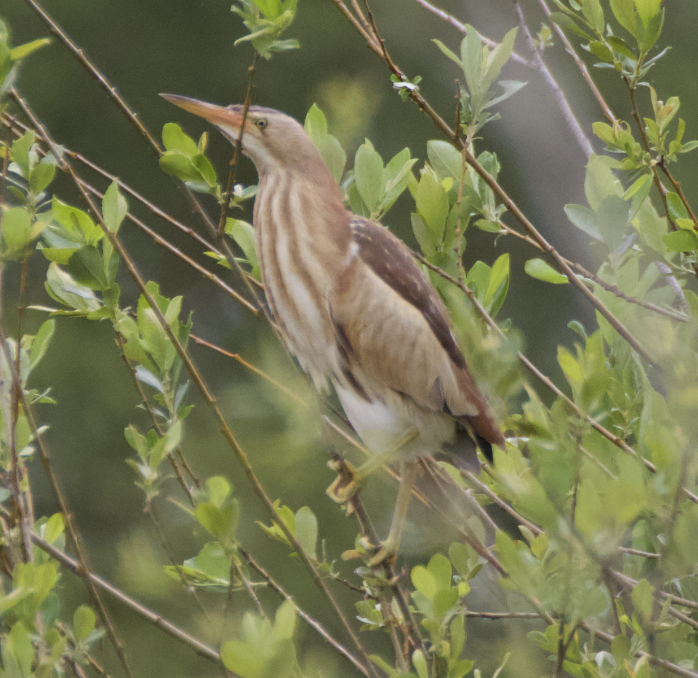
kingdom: Animalia
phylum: Chordata
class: Aves
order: Pelecaniformes
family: Ardeidae
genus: Ixobrychus
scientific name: Ixobrychus minutus
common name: Little bittern
